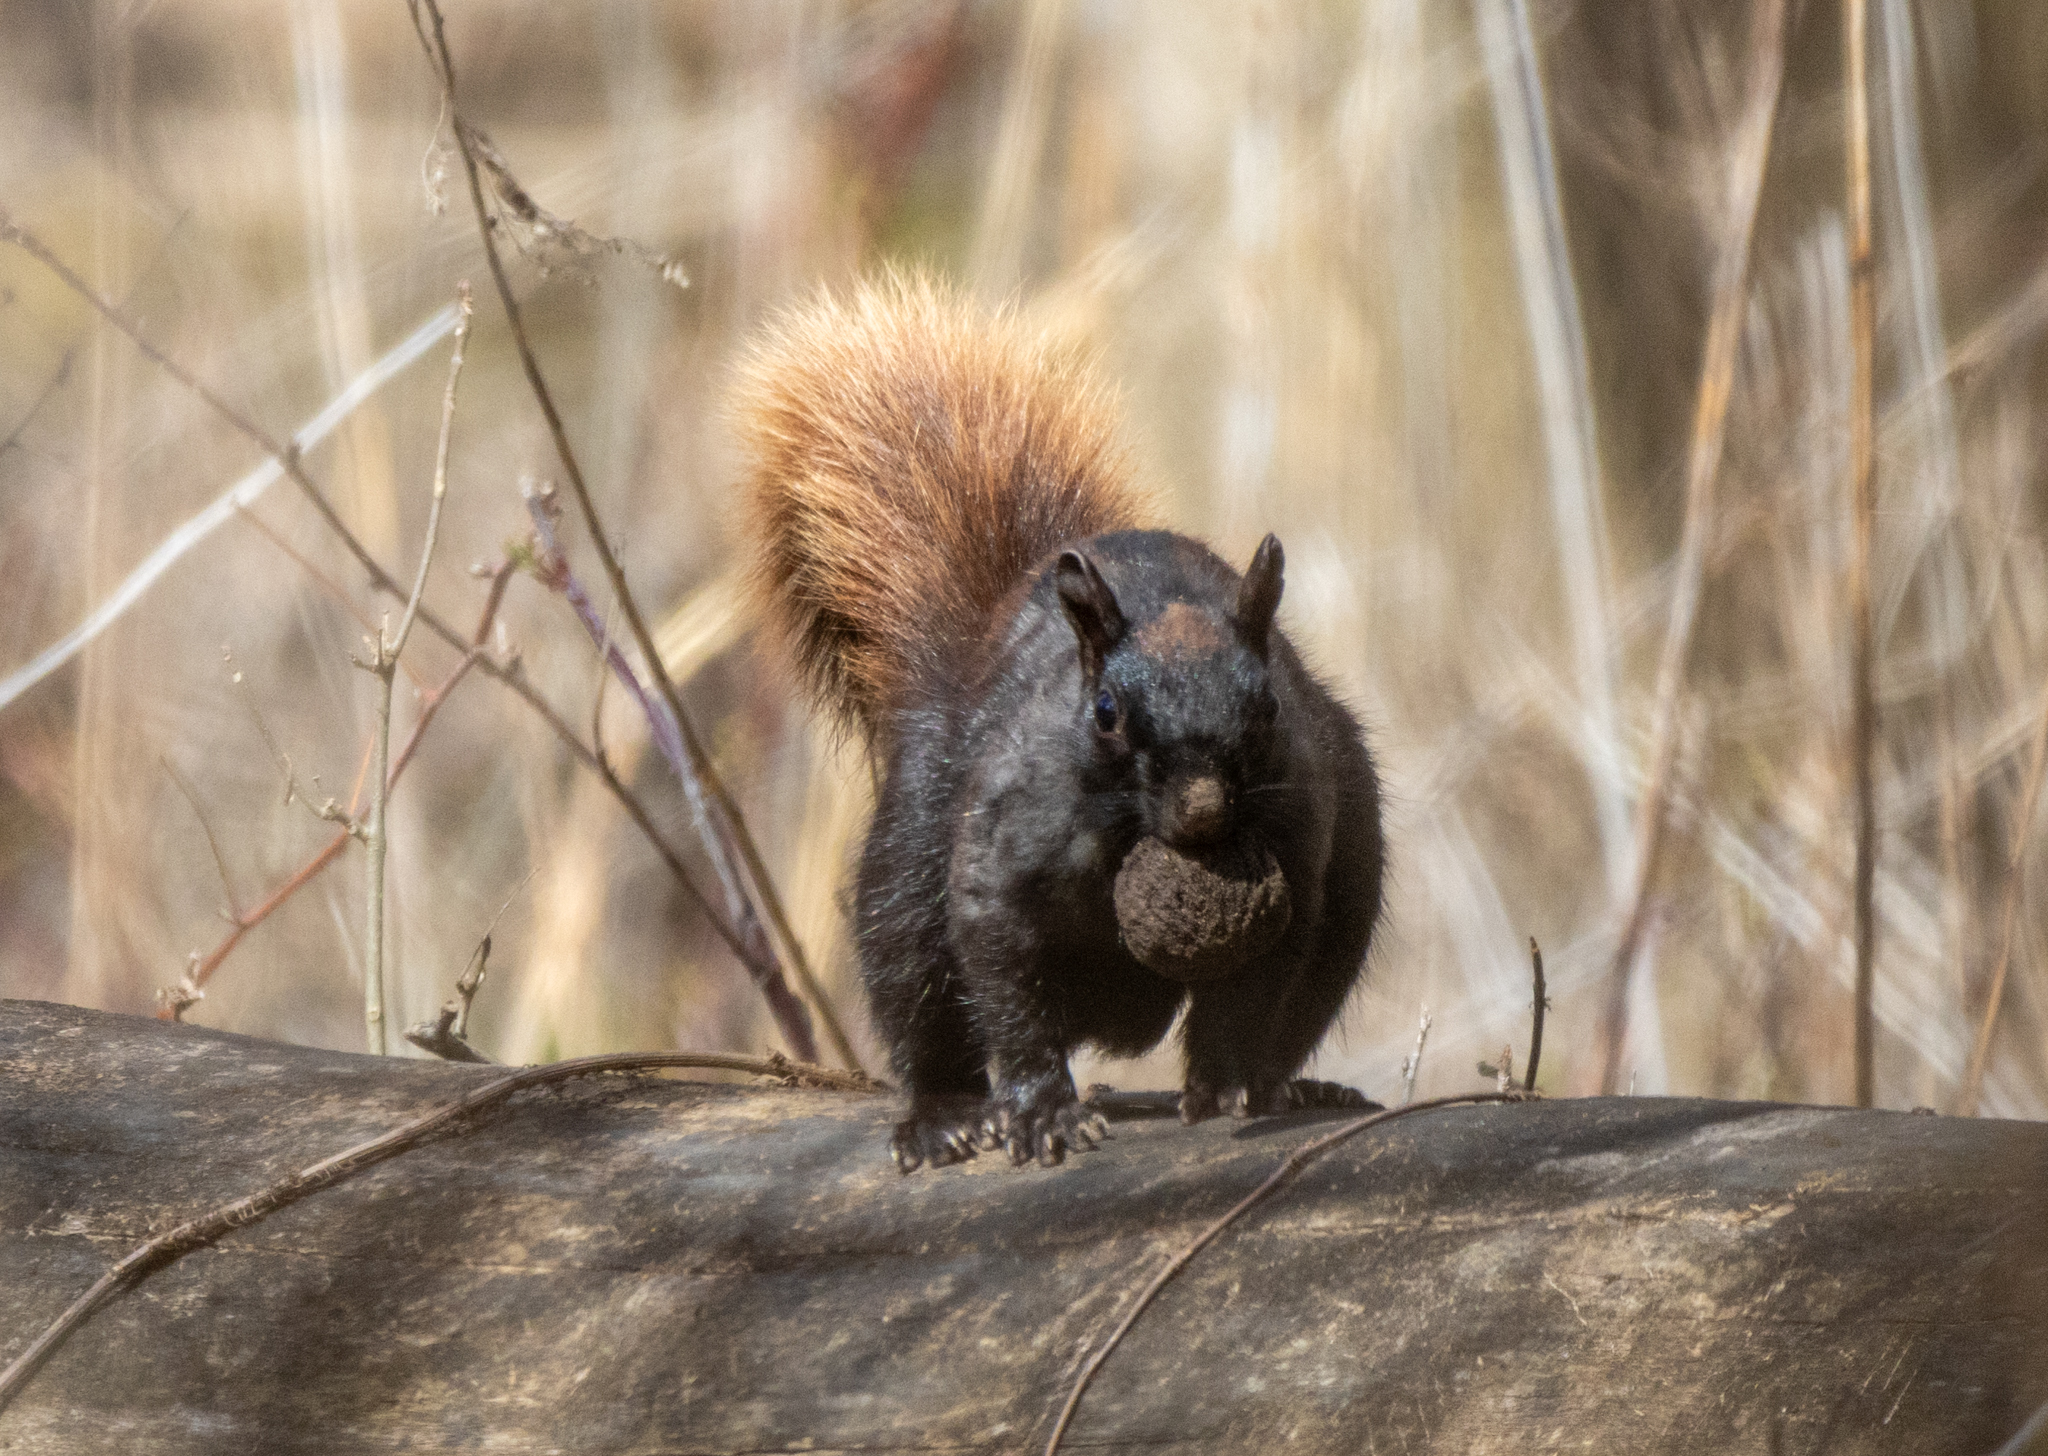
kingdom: Animalia
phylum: Chordata
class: Mammalia
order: Rodentia
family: Sciuridae
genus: Sciurus
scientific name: Sciurus carolinensis
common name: Eastern gray squirrel
